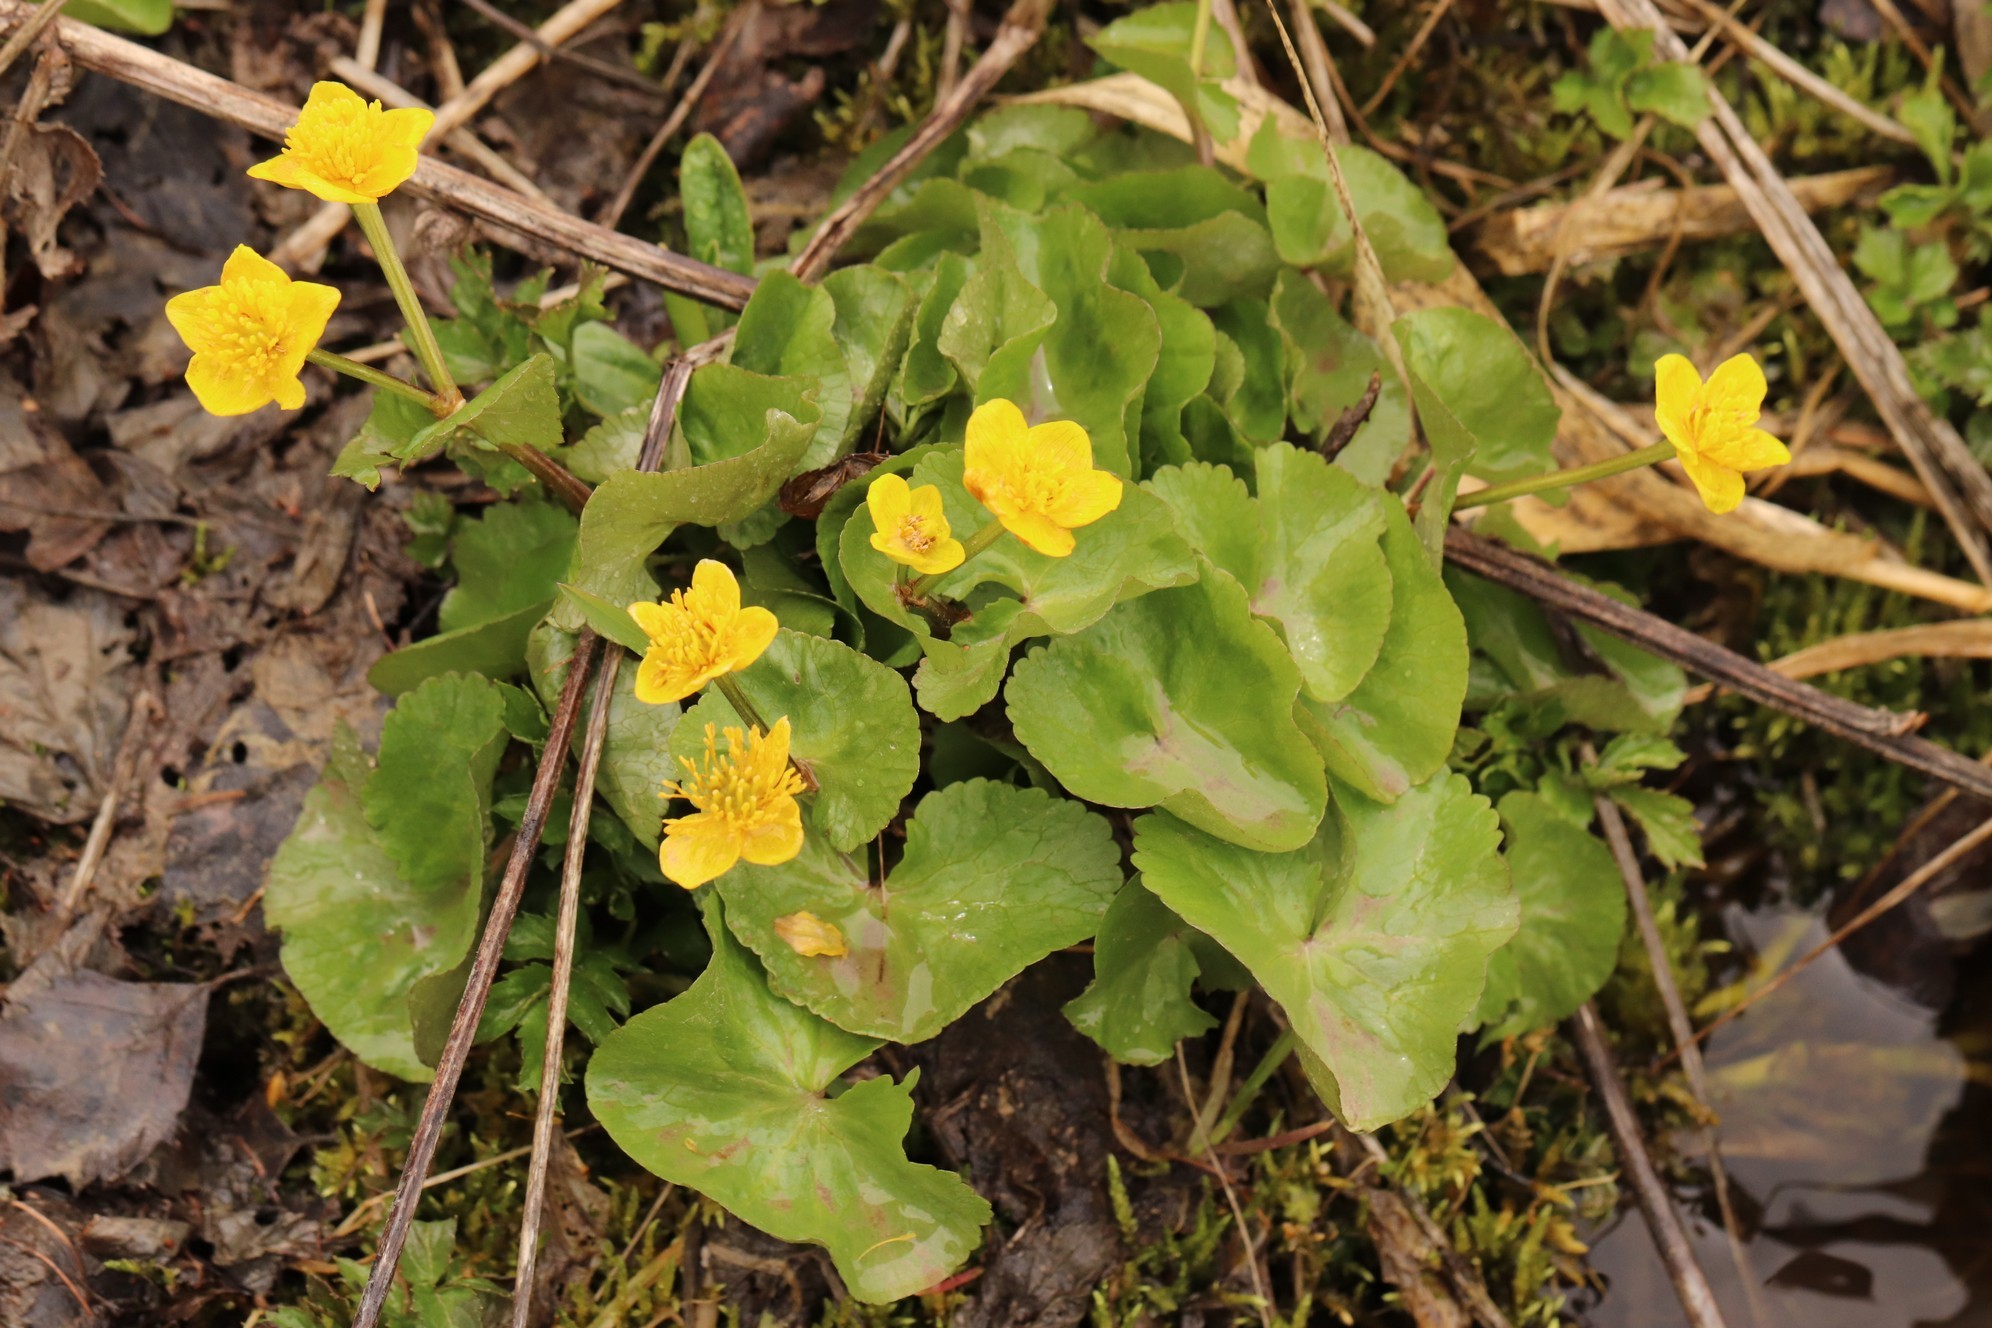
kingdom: Plantae
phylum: Tracheophyta
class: Magnoliopsida
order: Ranunculales
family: Ranunculaceae
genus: Caltha
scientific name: Caltha palustris
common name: Marsh marigold
